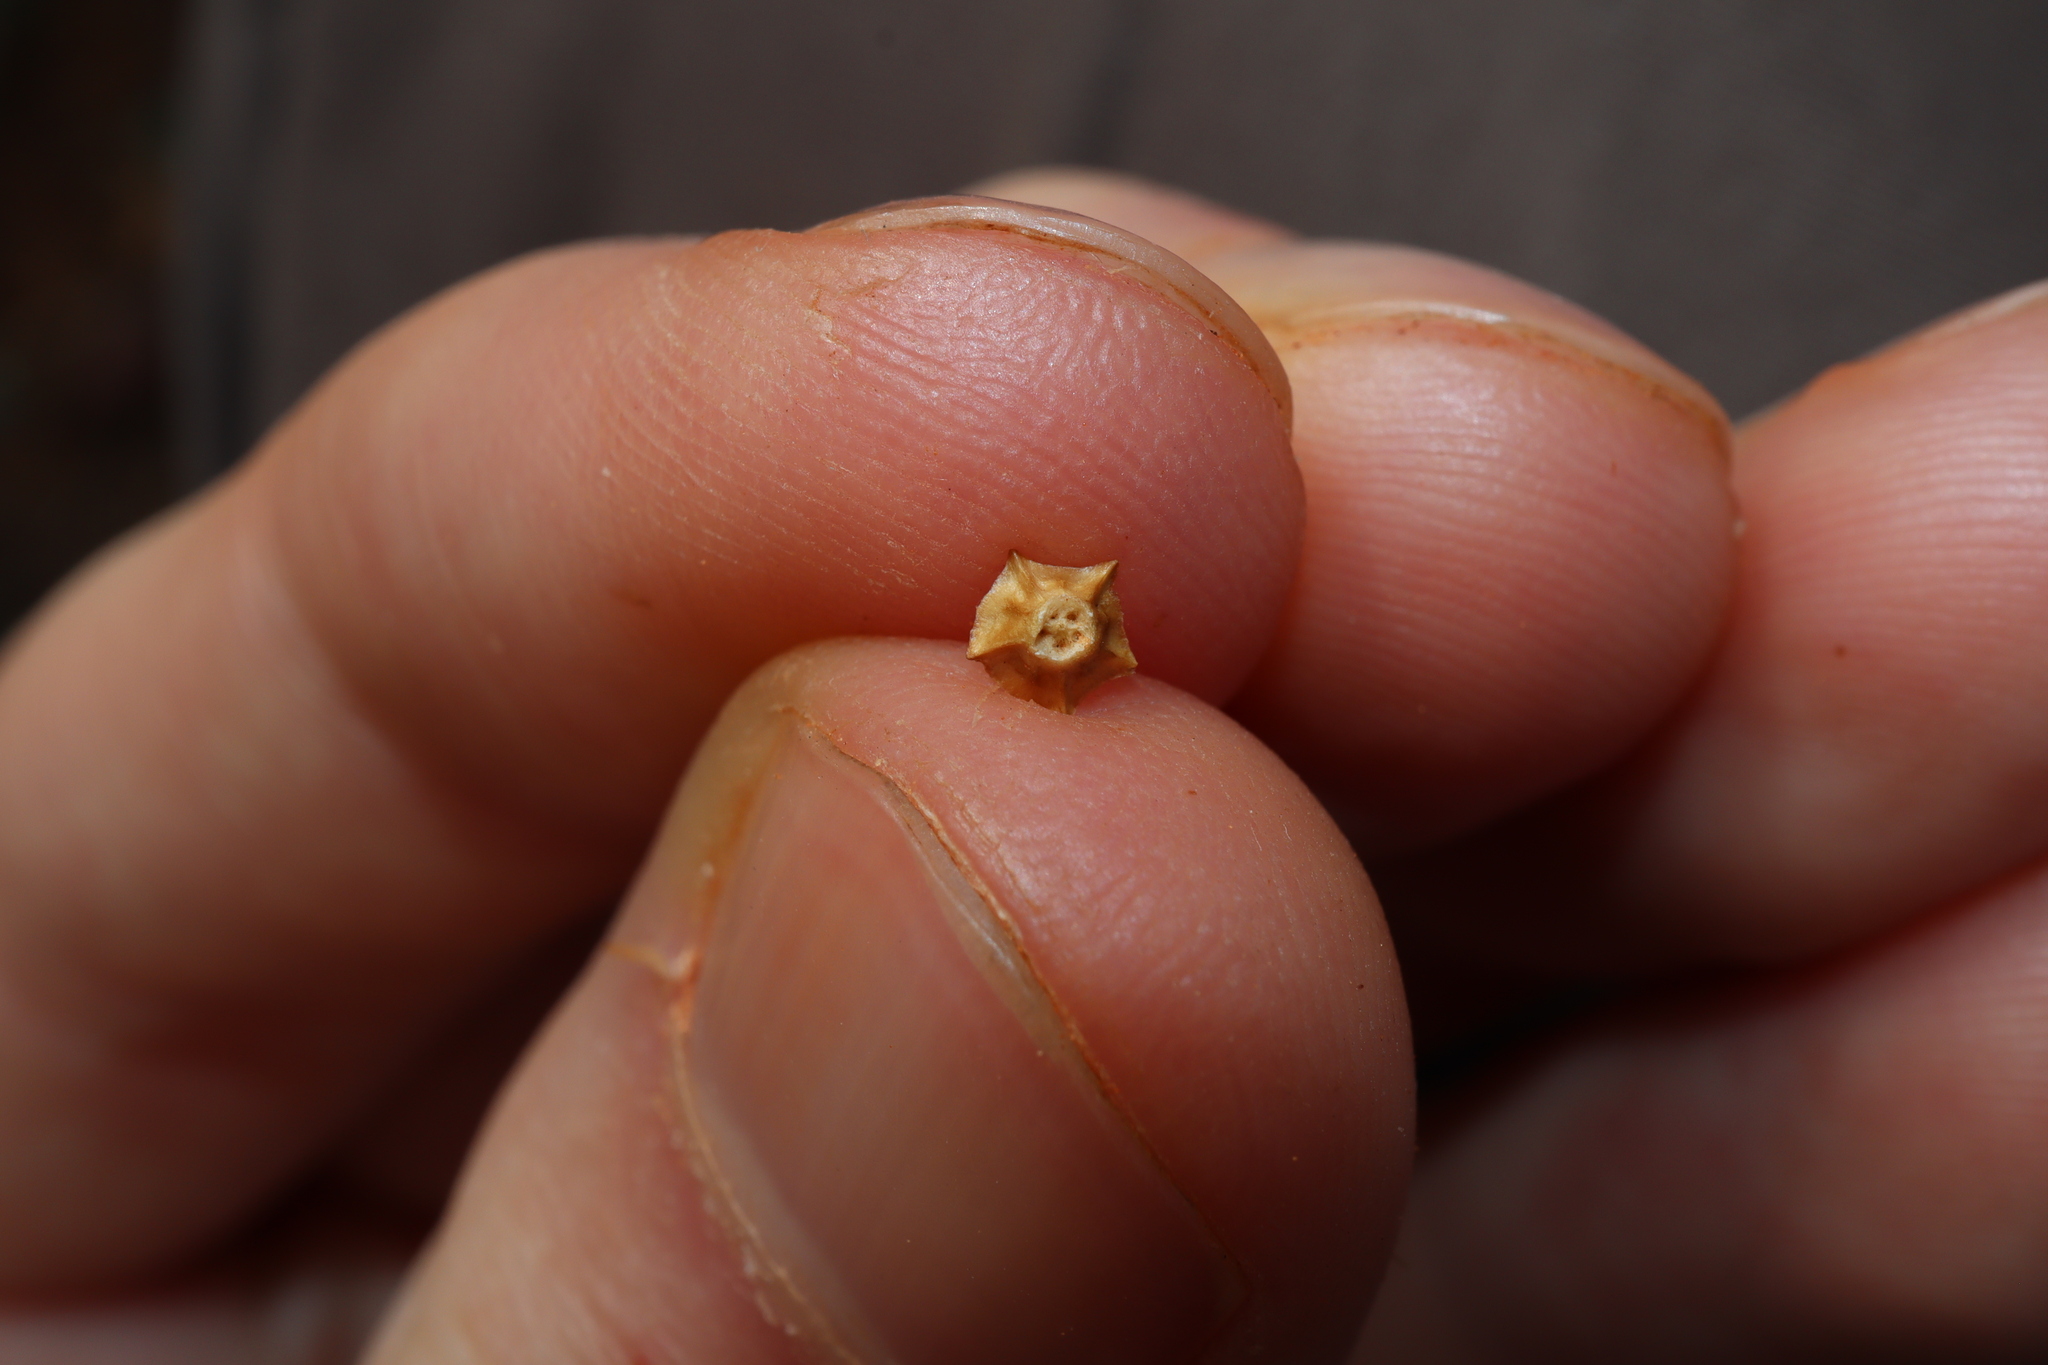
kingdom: Plantae
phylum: Tracheophyta
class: Magnoliopsida
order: Caryophyllales
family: Amaranthaceae
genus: Sclerolaena
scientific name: Sclerolaena brachyptera
